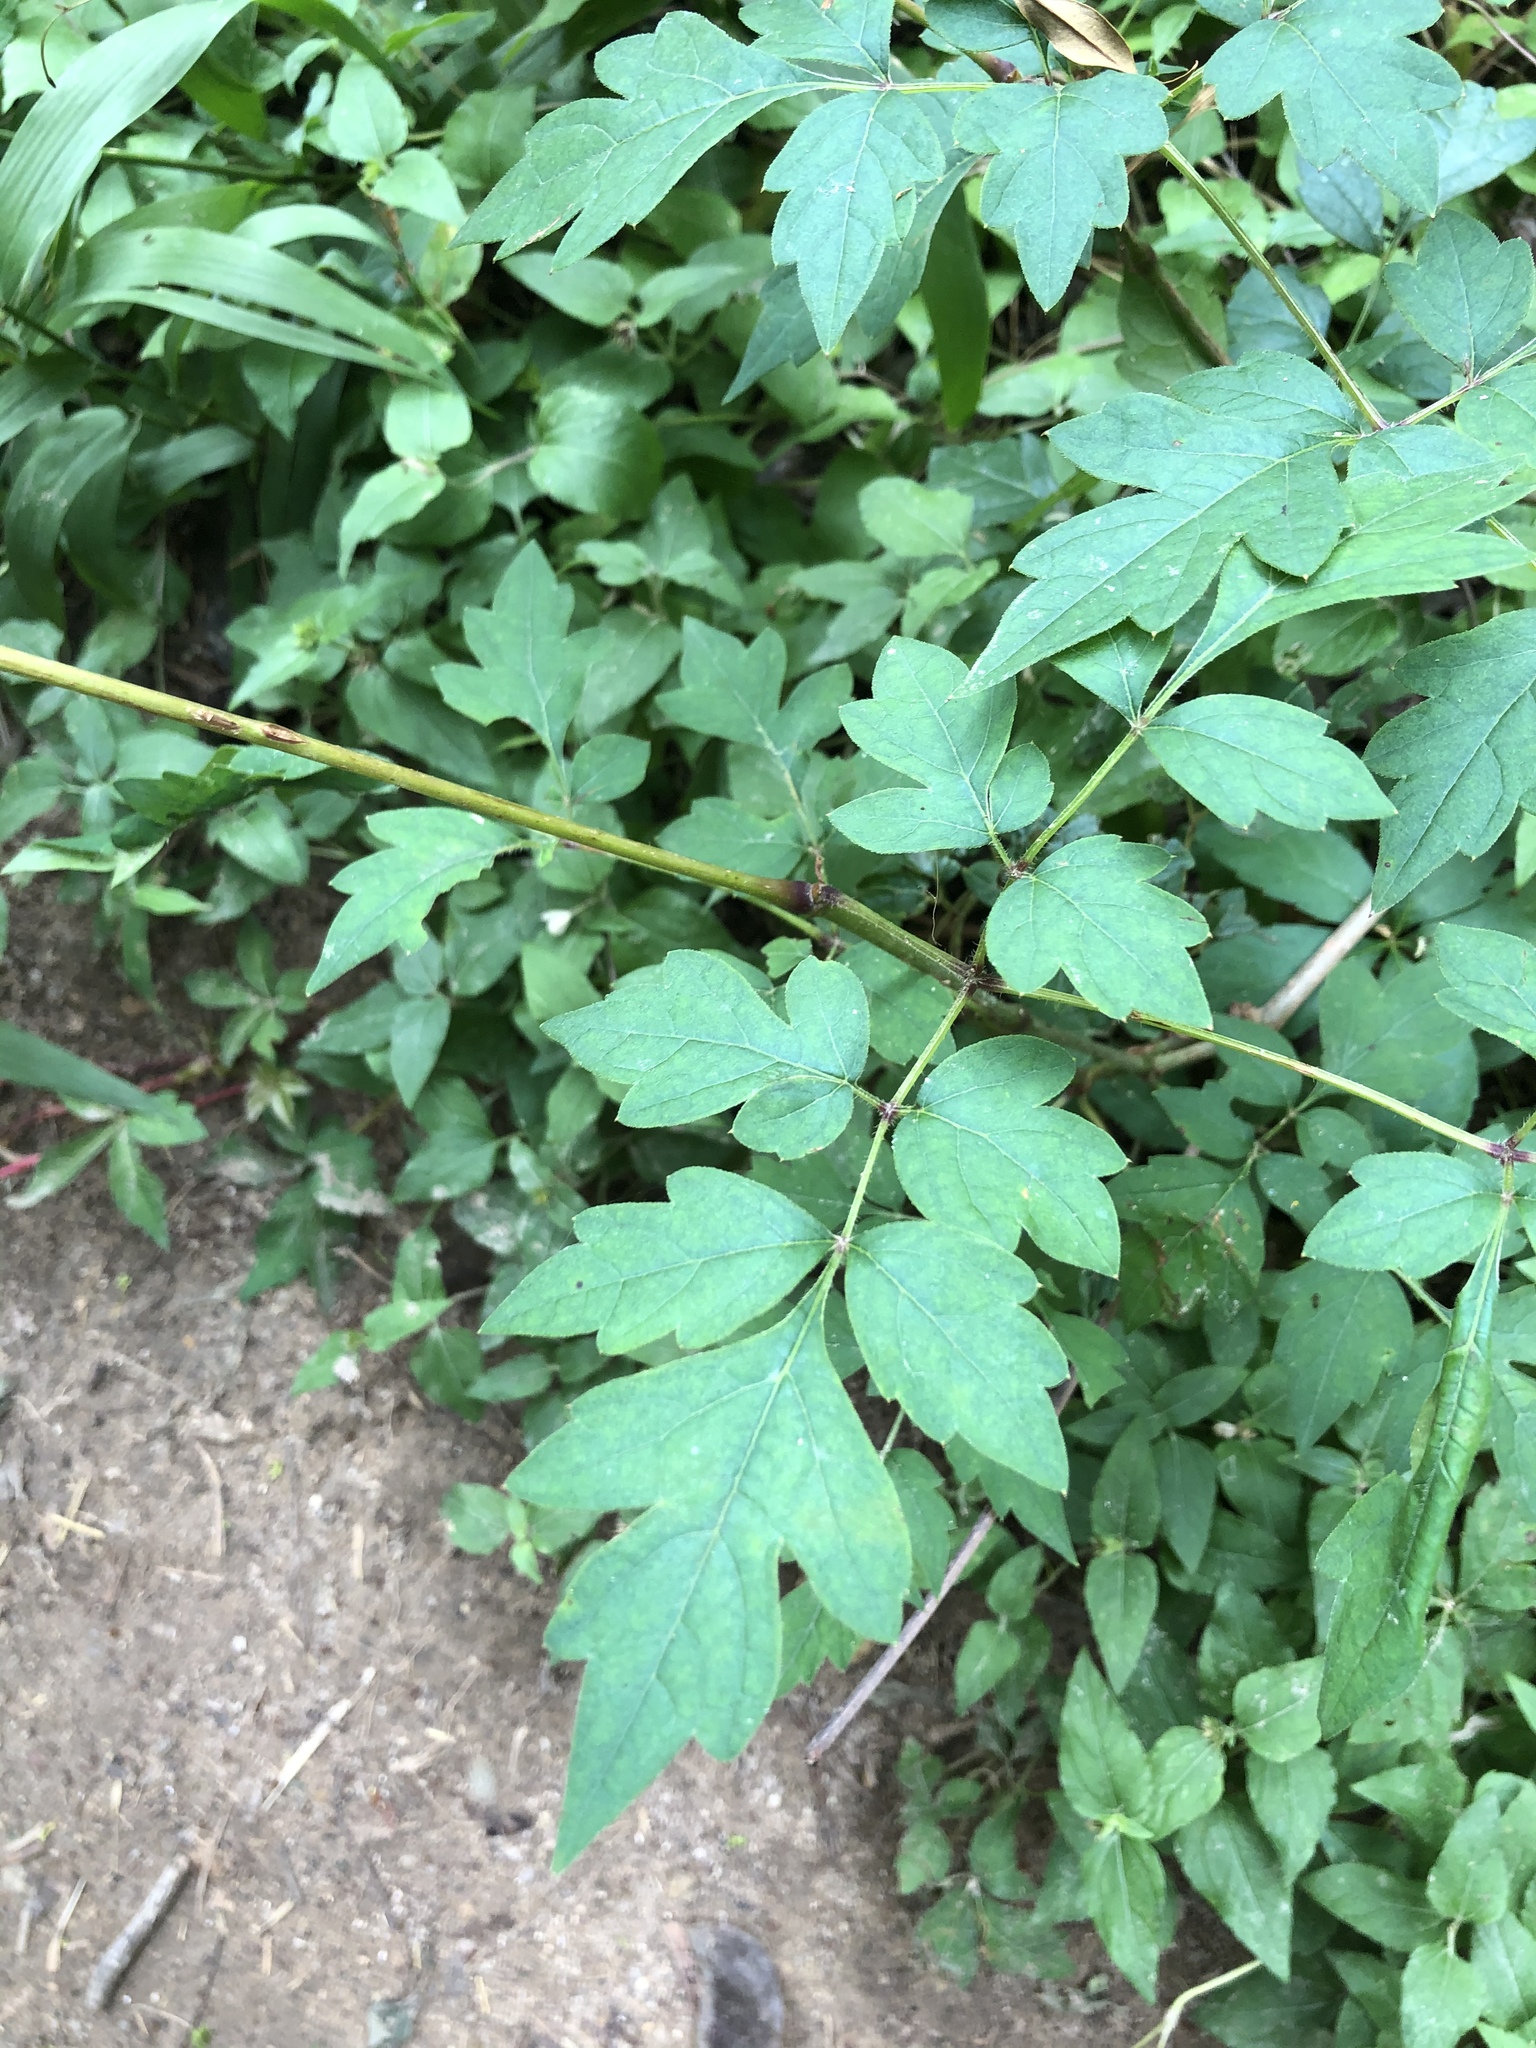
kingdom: Plantae
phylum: Tracheophyta
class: Magnoliopsida
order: Vitales
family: Vitaceae
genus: Nekemias
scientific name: Nekemias arborea
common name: Peppervine
